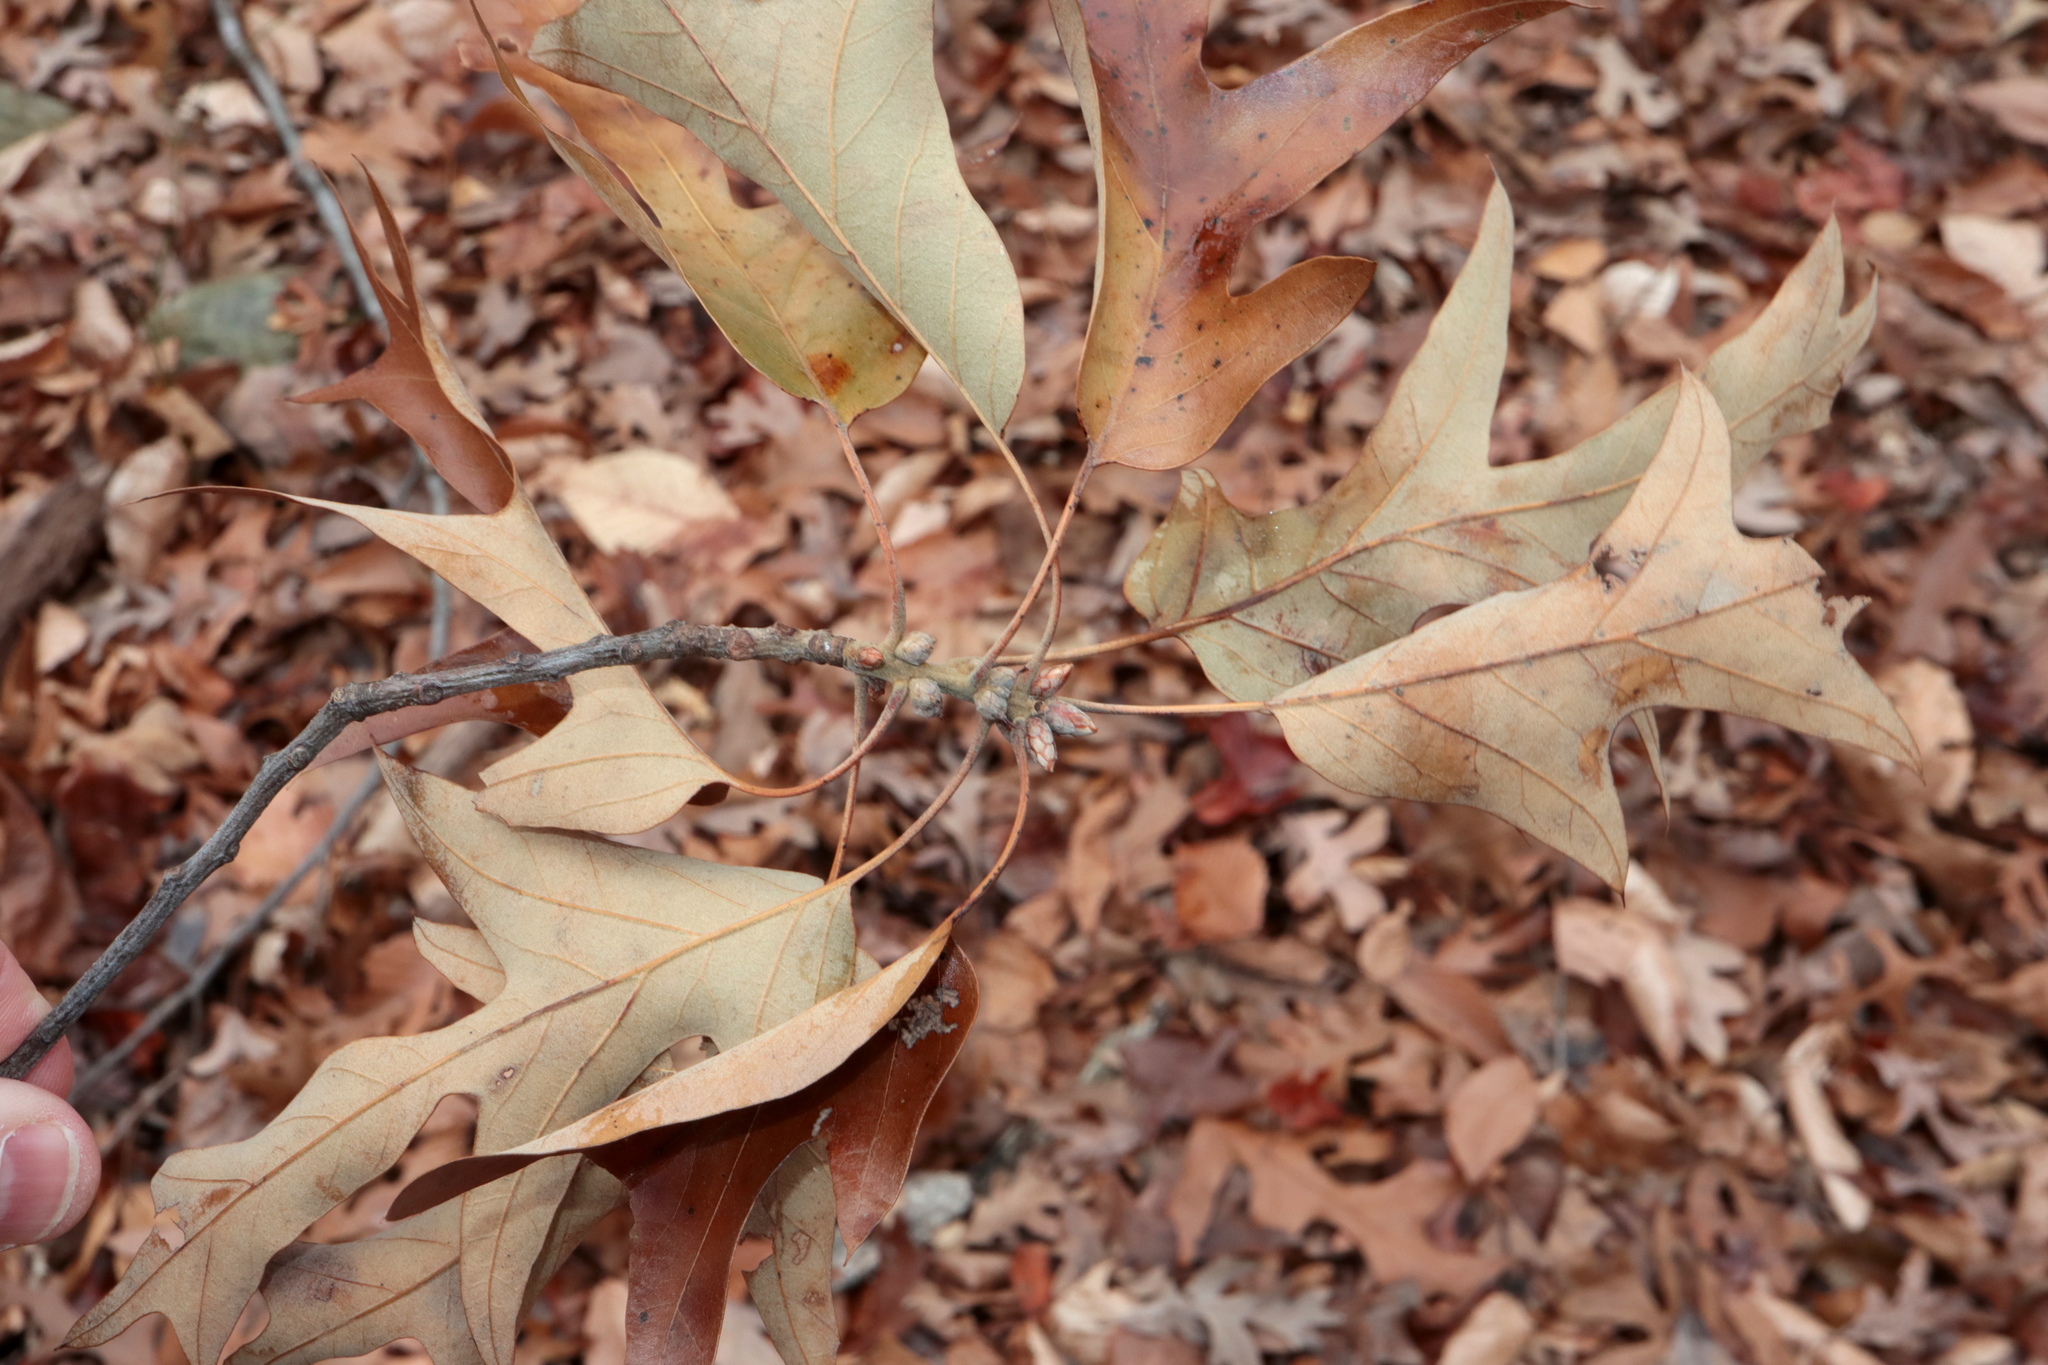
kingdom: Plantae
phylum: Tracheophyta
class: Magnoliopsida
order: Fagales
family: Fagaceae
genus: Quercus
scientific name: Quercus falcata
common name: Southern red oak
